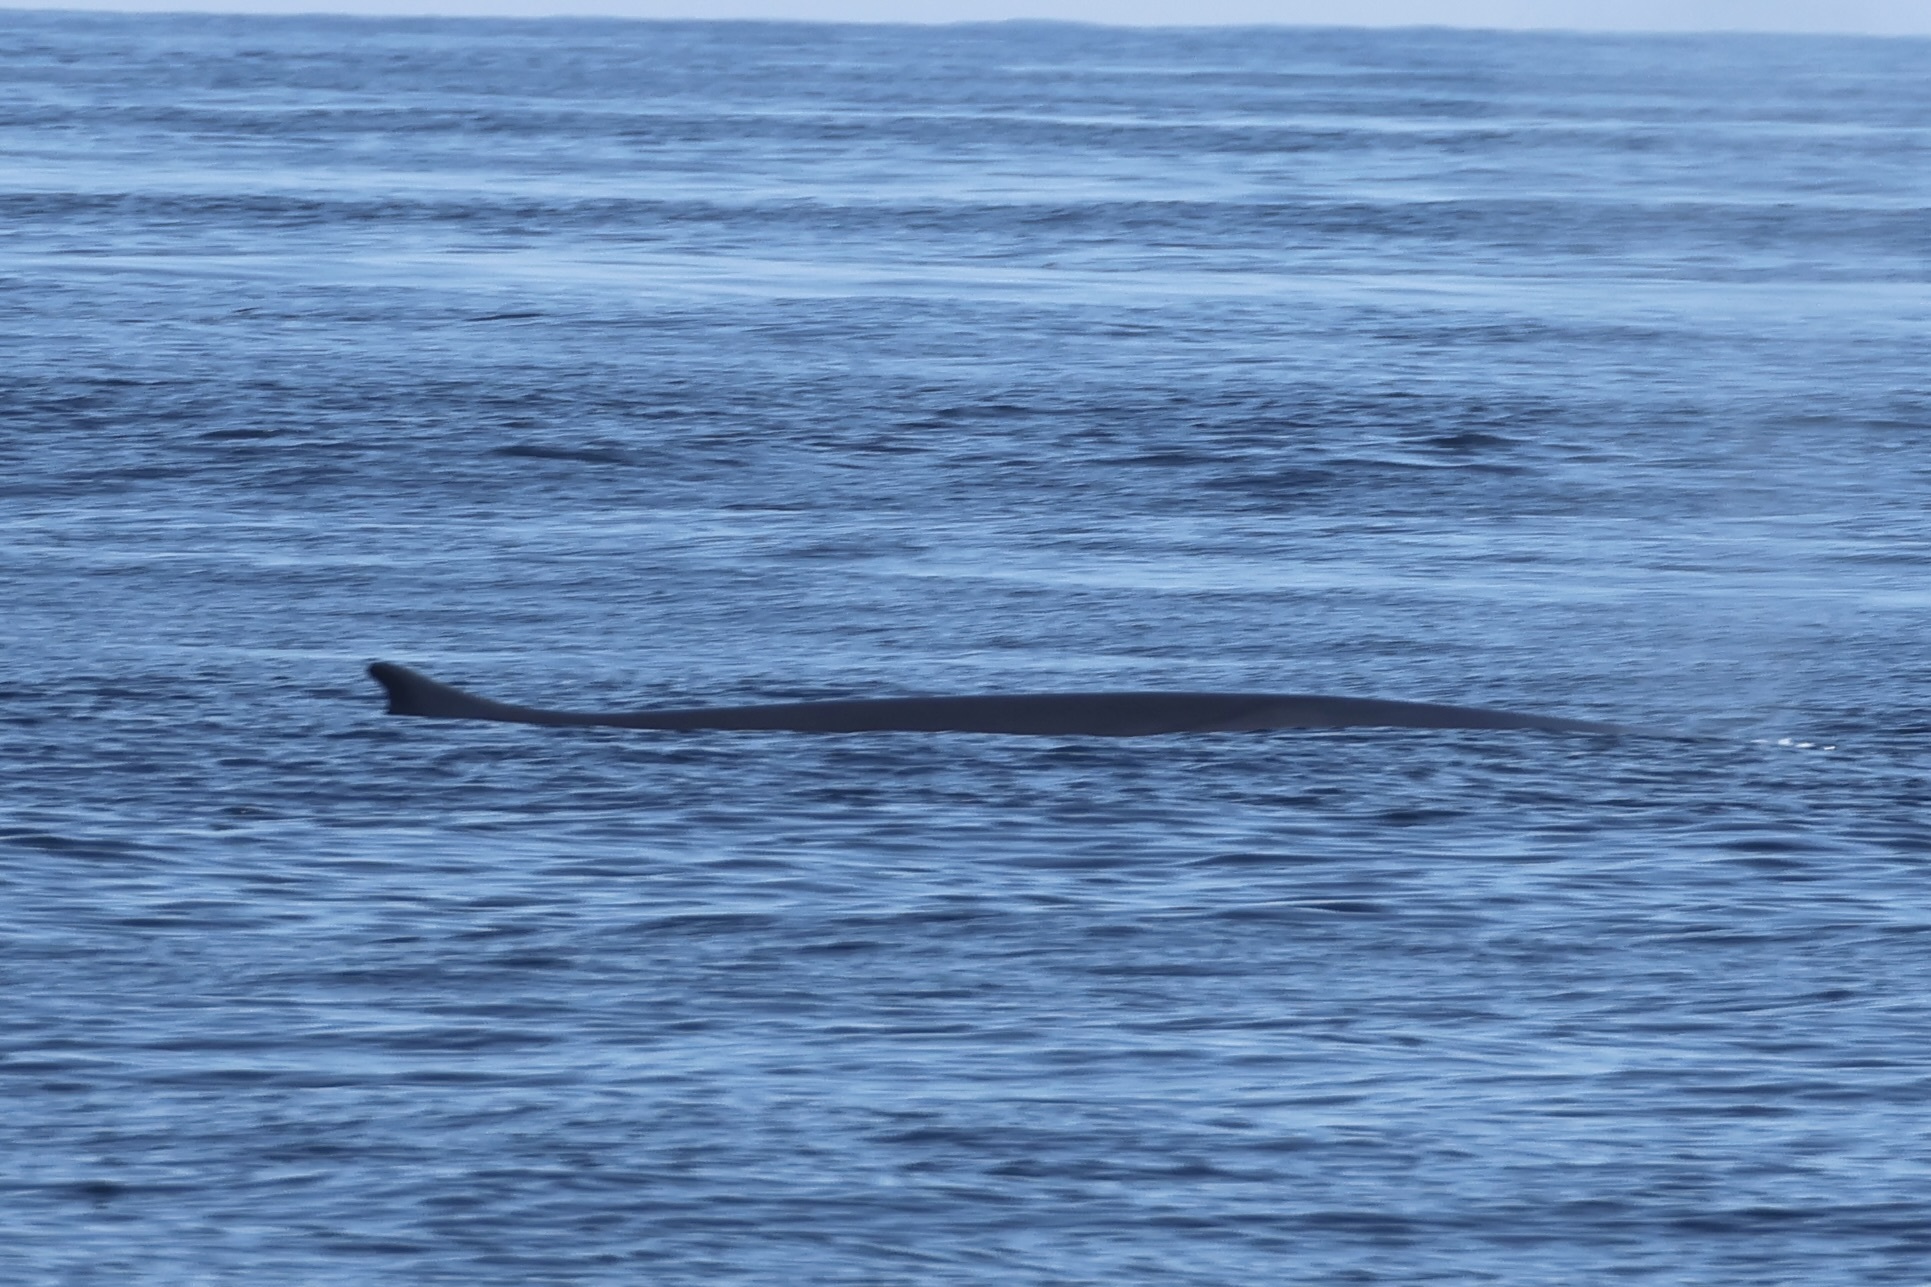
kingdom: Animalia
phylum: Chordata
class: Mammalia
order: Cetacea
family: Balaenopteridae
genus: Balaenoptera
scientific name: Balaenoptera physalus
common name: Fin whale
